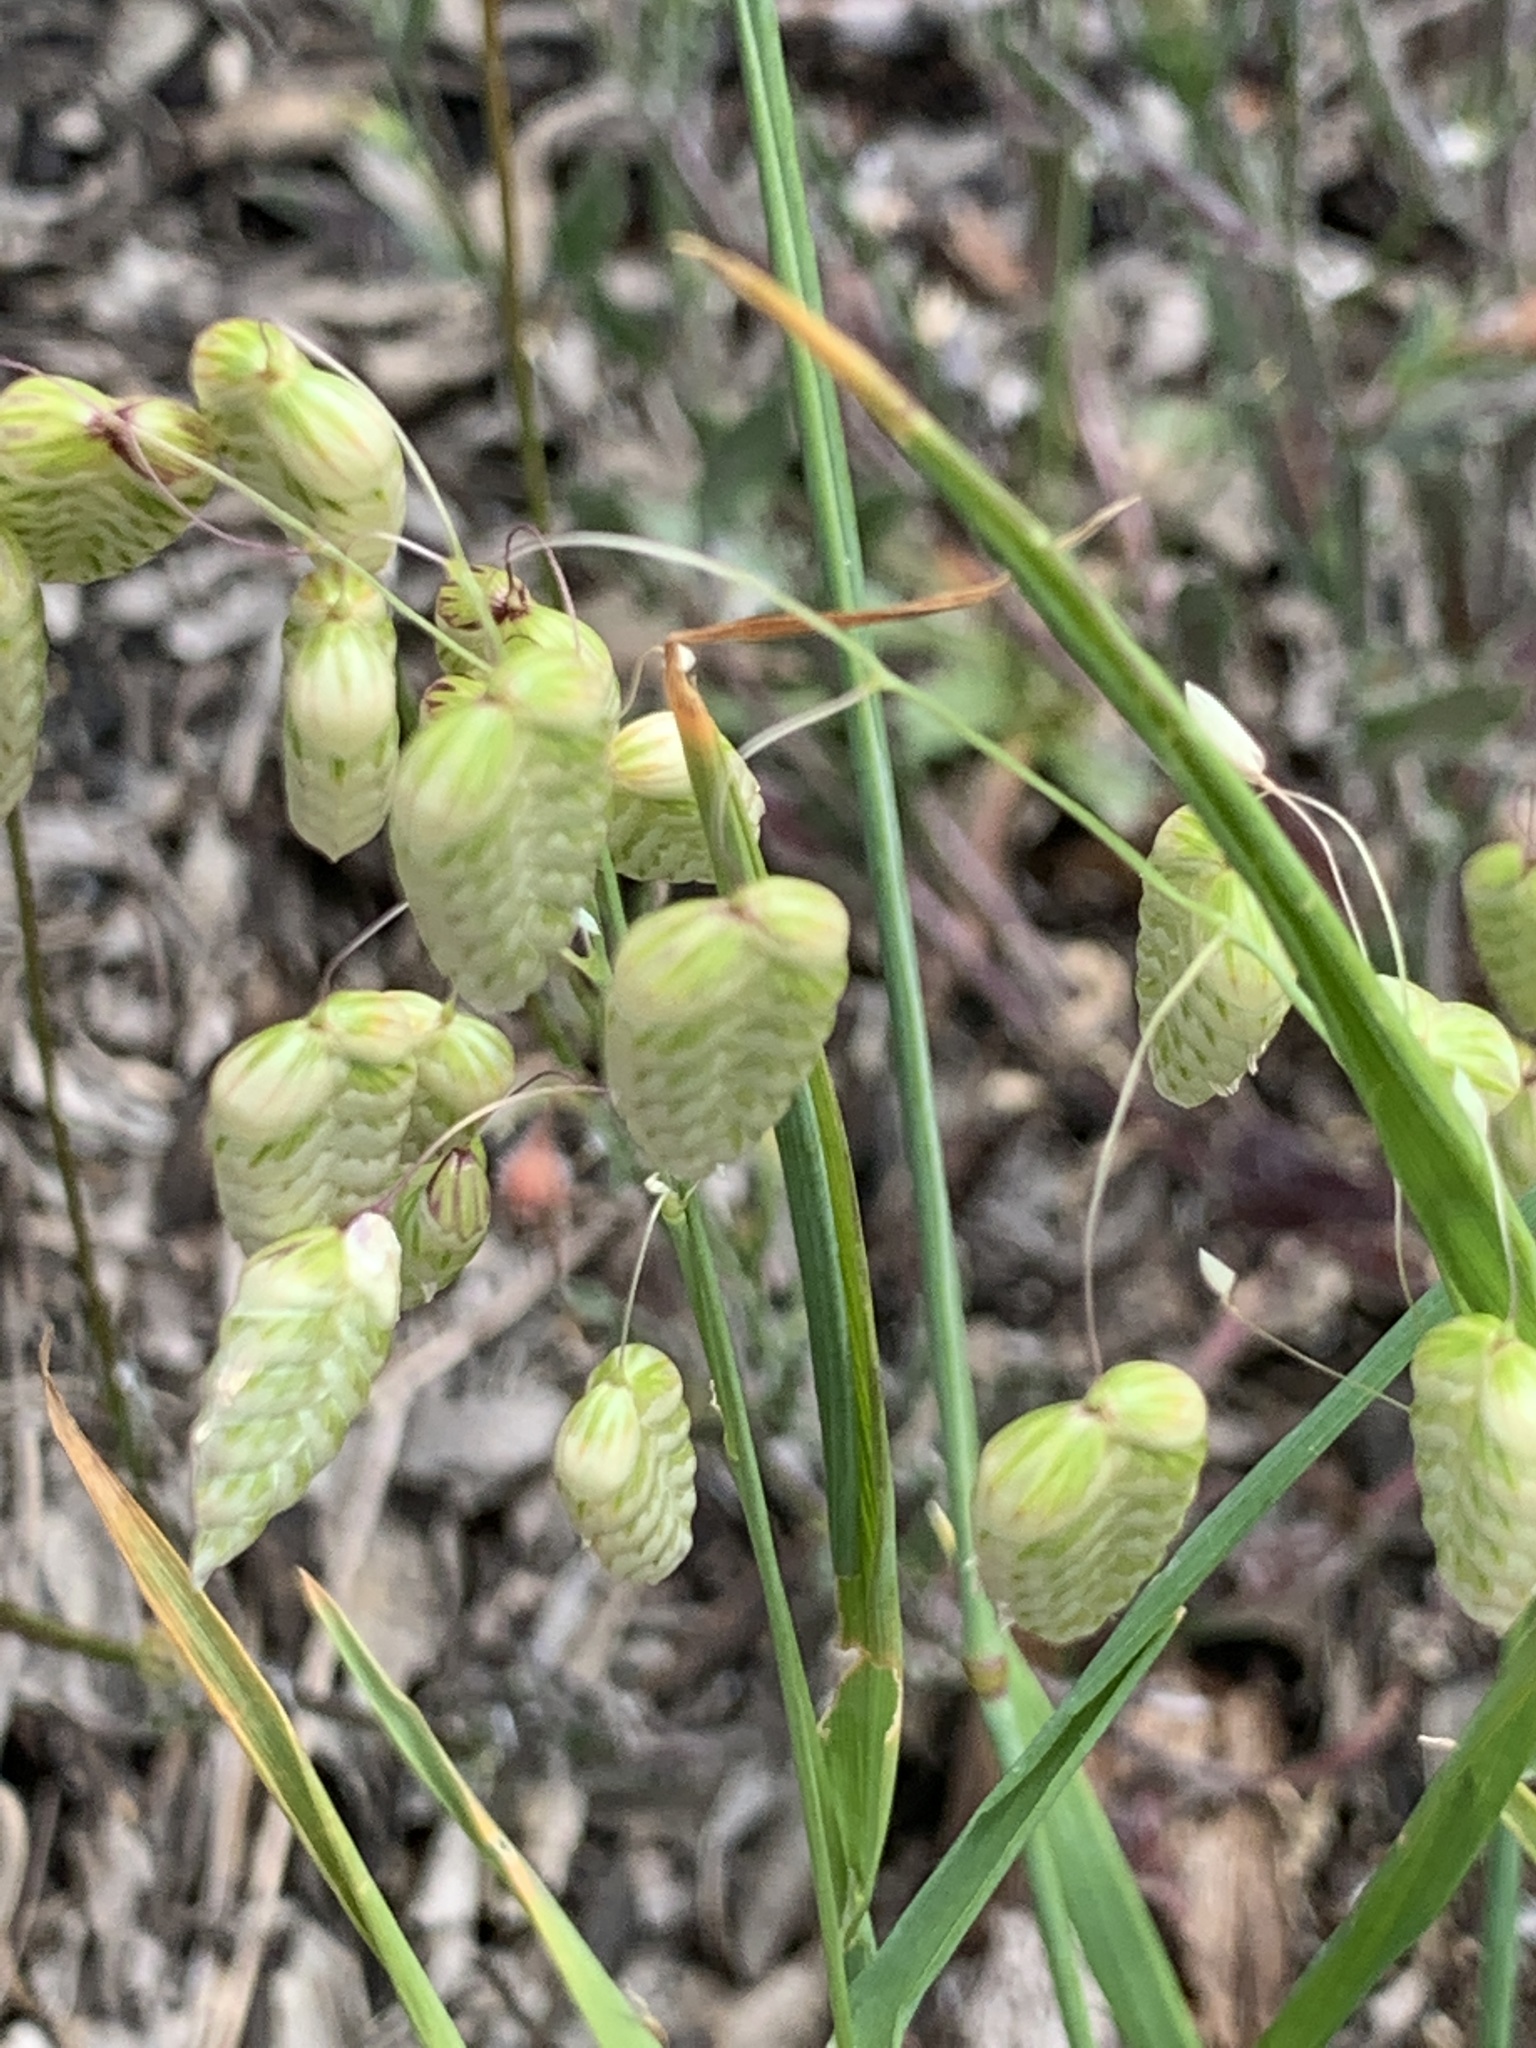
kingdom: Plantae
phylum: Tracheophyta
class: Liliopsida
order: Poales
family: Poaceae
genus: Briza
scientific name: Briza maxima
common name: Big quakinggrass
